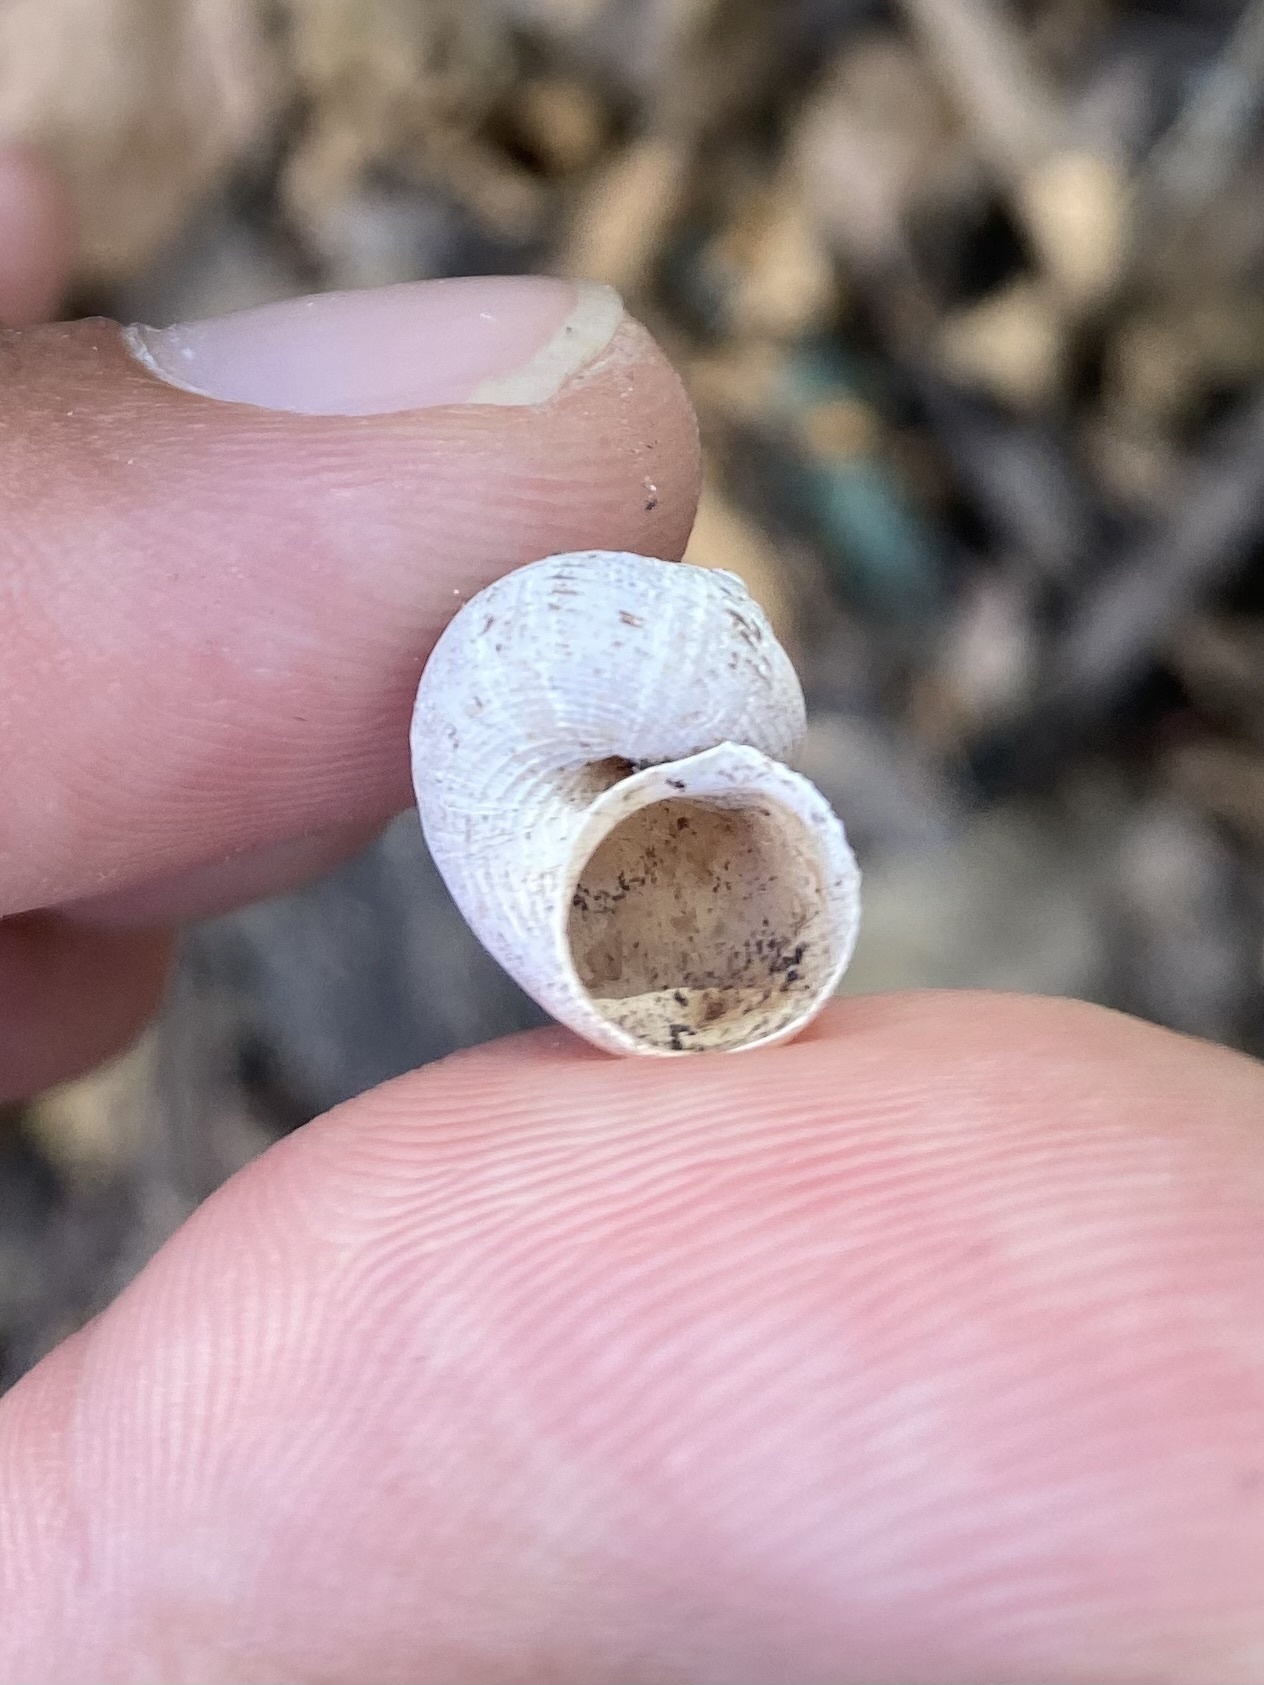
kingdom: Animalia
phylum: Mollusca
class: Gastropoda
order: Littorinimorpha
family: Pomatiidae
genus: Pomatias
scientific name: Pomatias rivularis
